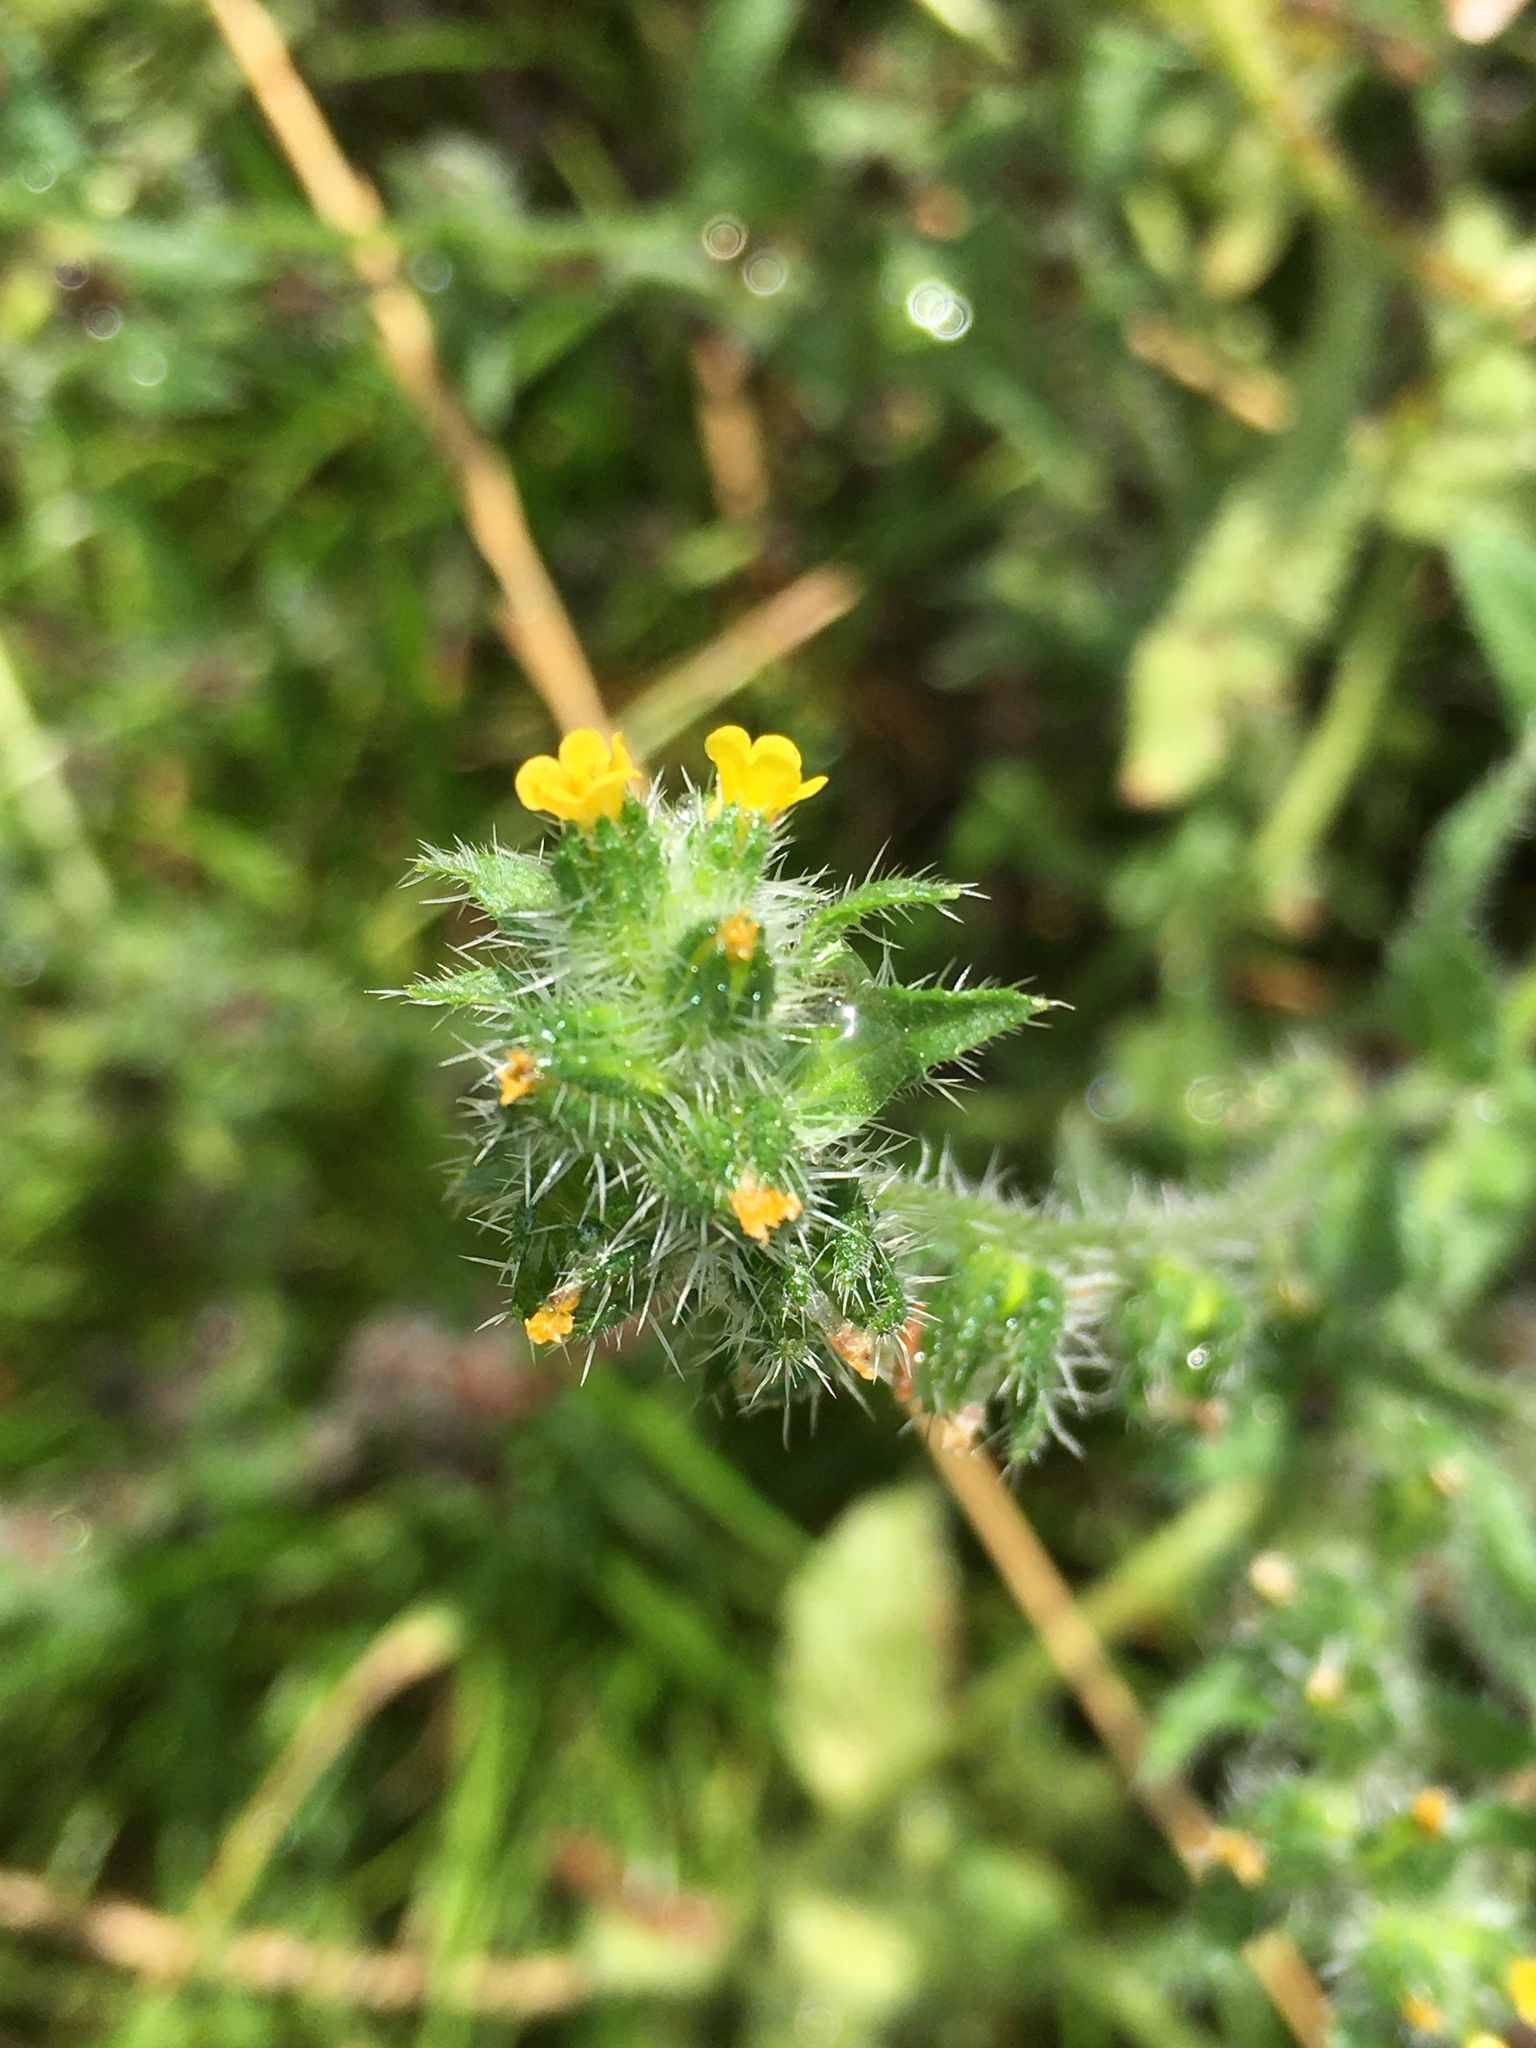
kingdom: Plantae
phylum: Tracheophyta
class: Magnoliopsida
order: Boraginales
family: Boraginaceae
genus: Amsinckia
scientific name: Amsinckia menziesii
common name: Menzies' fiddleneck
